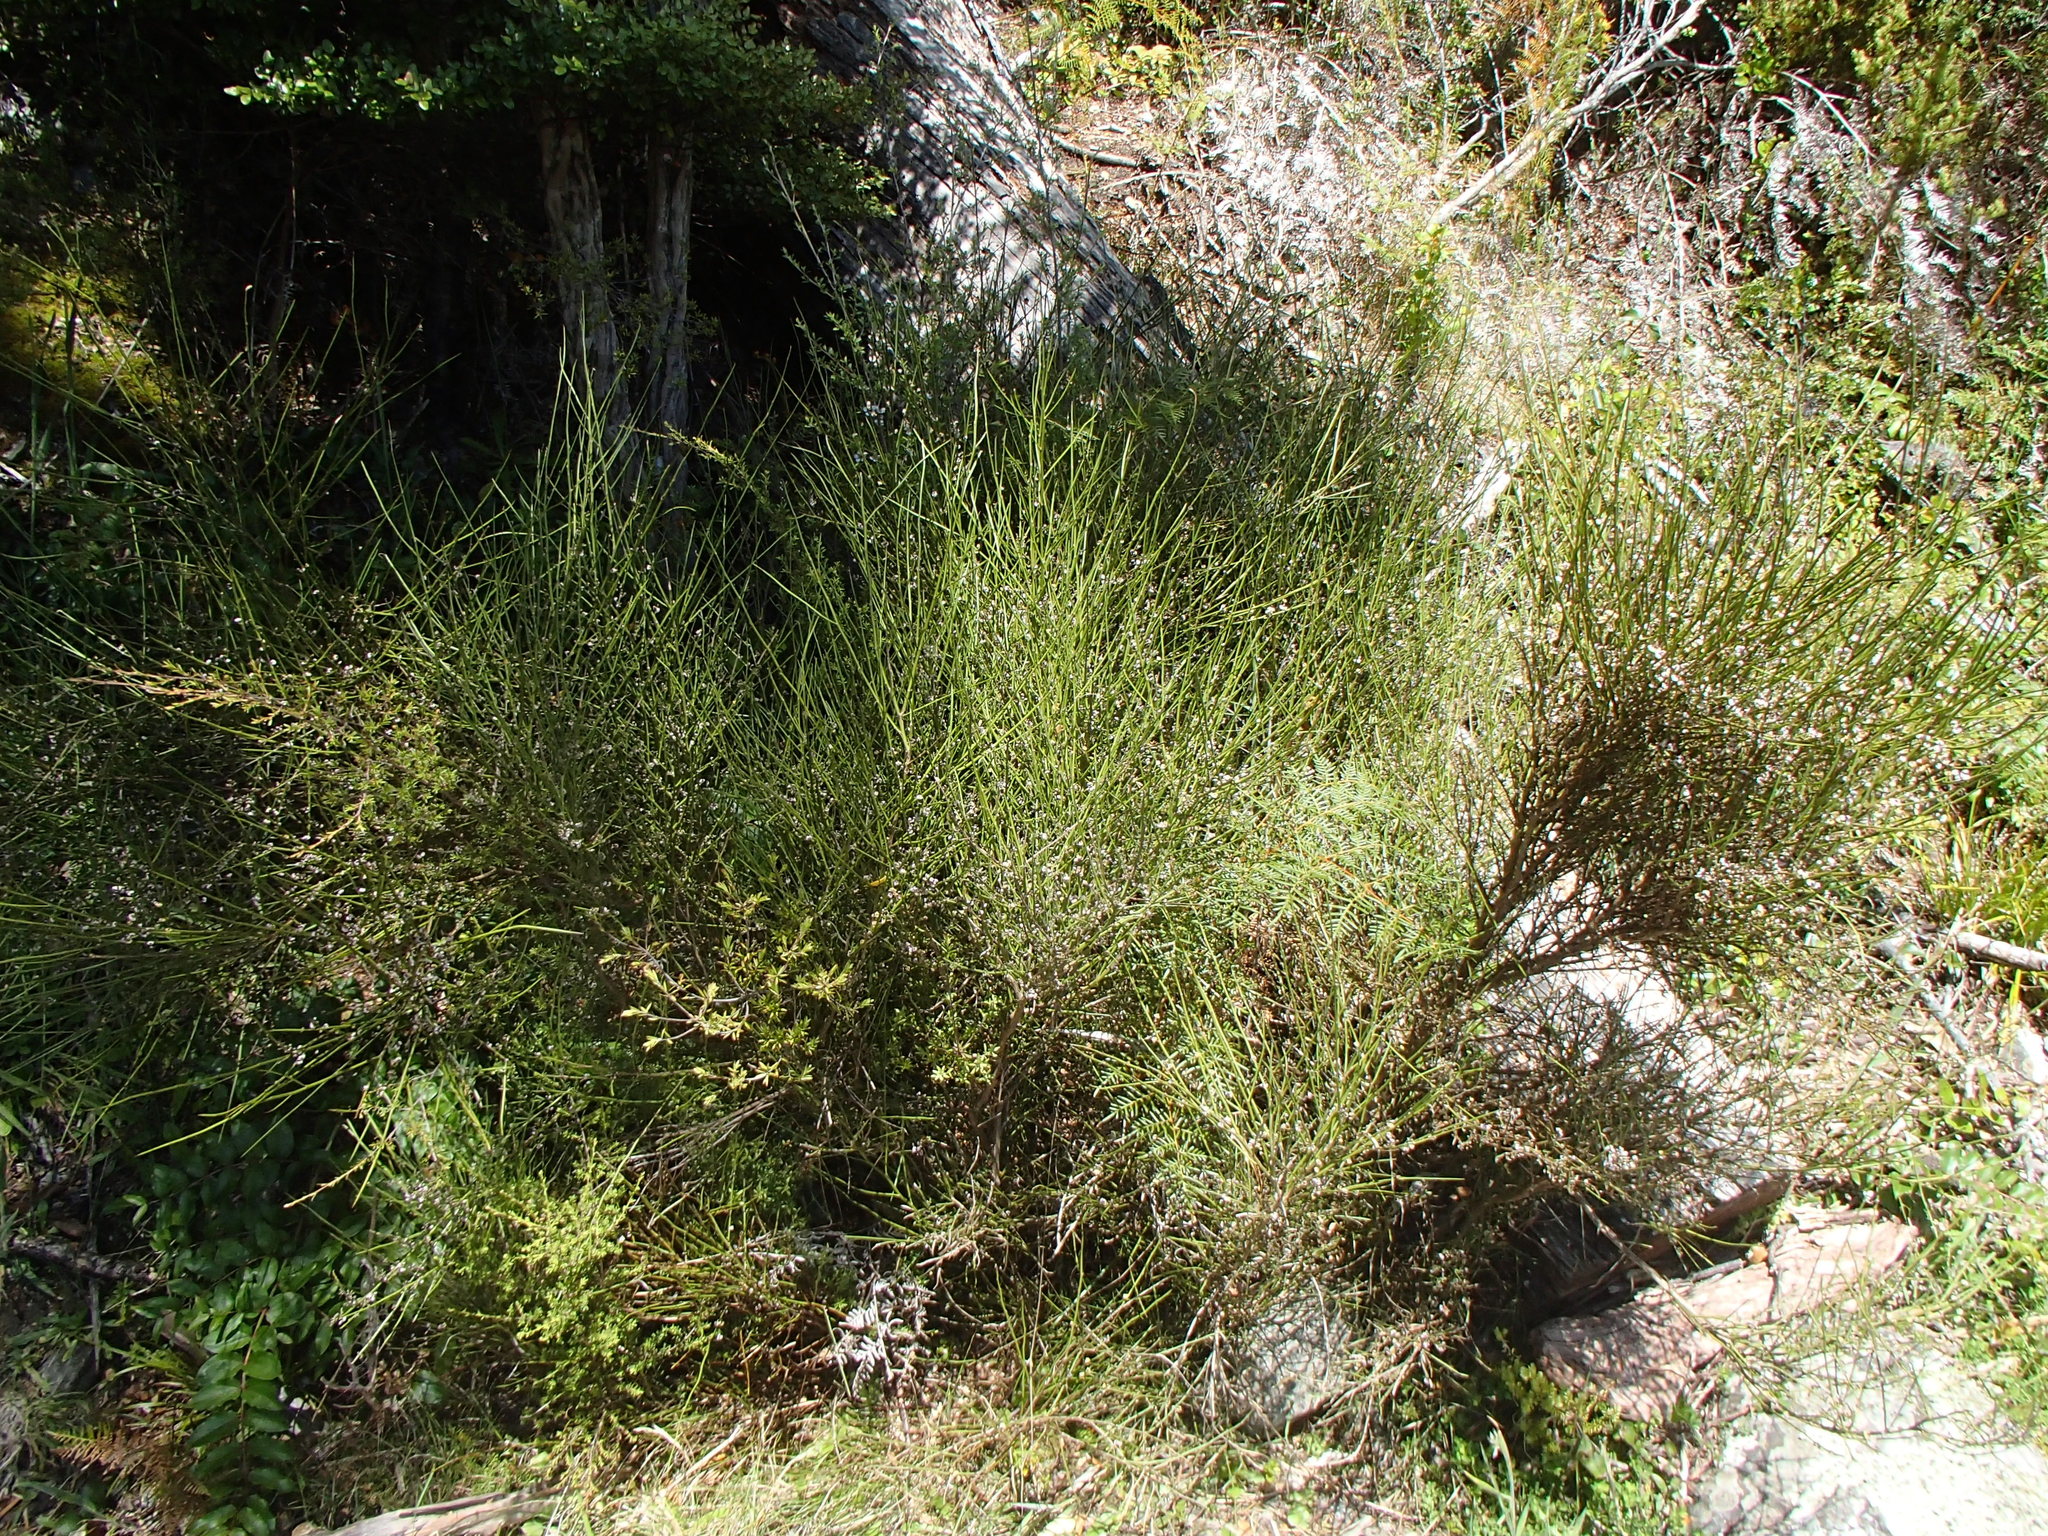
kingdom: Plantae
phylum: Tracheophyta
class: Magnoliopsida
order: Fabales
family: Fabaceae
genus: Carmichaelia
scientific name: Carmichaelia australis
